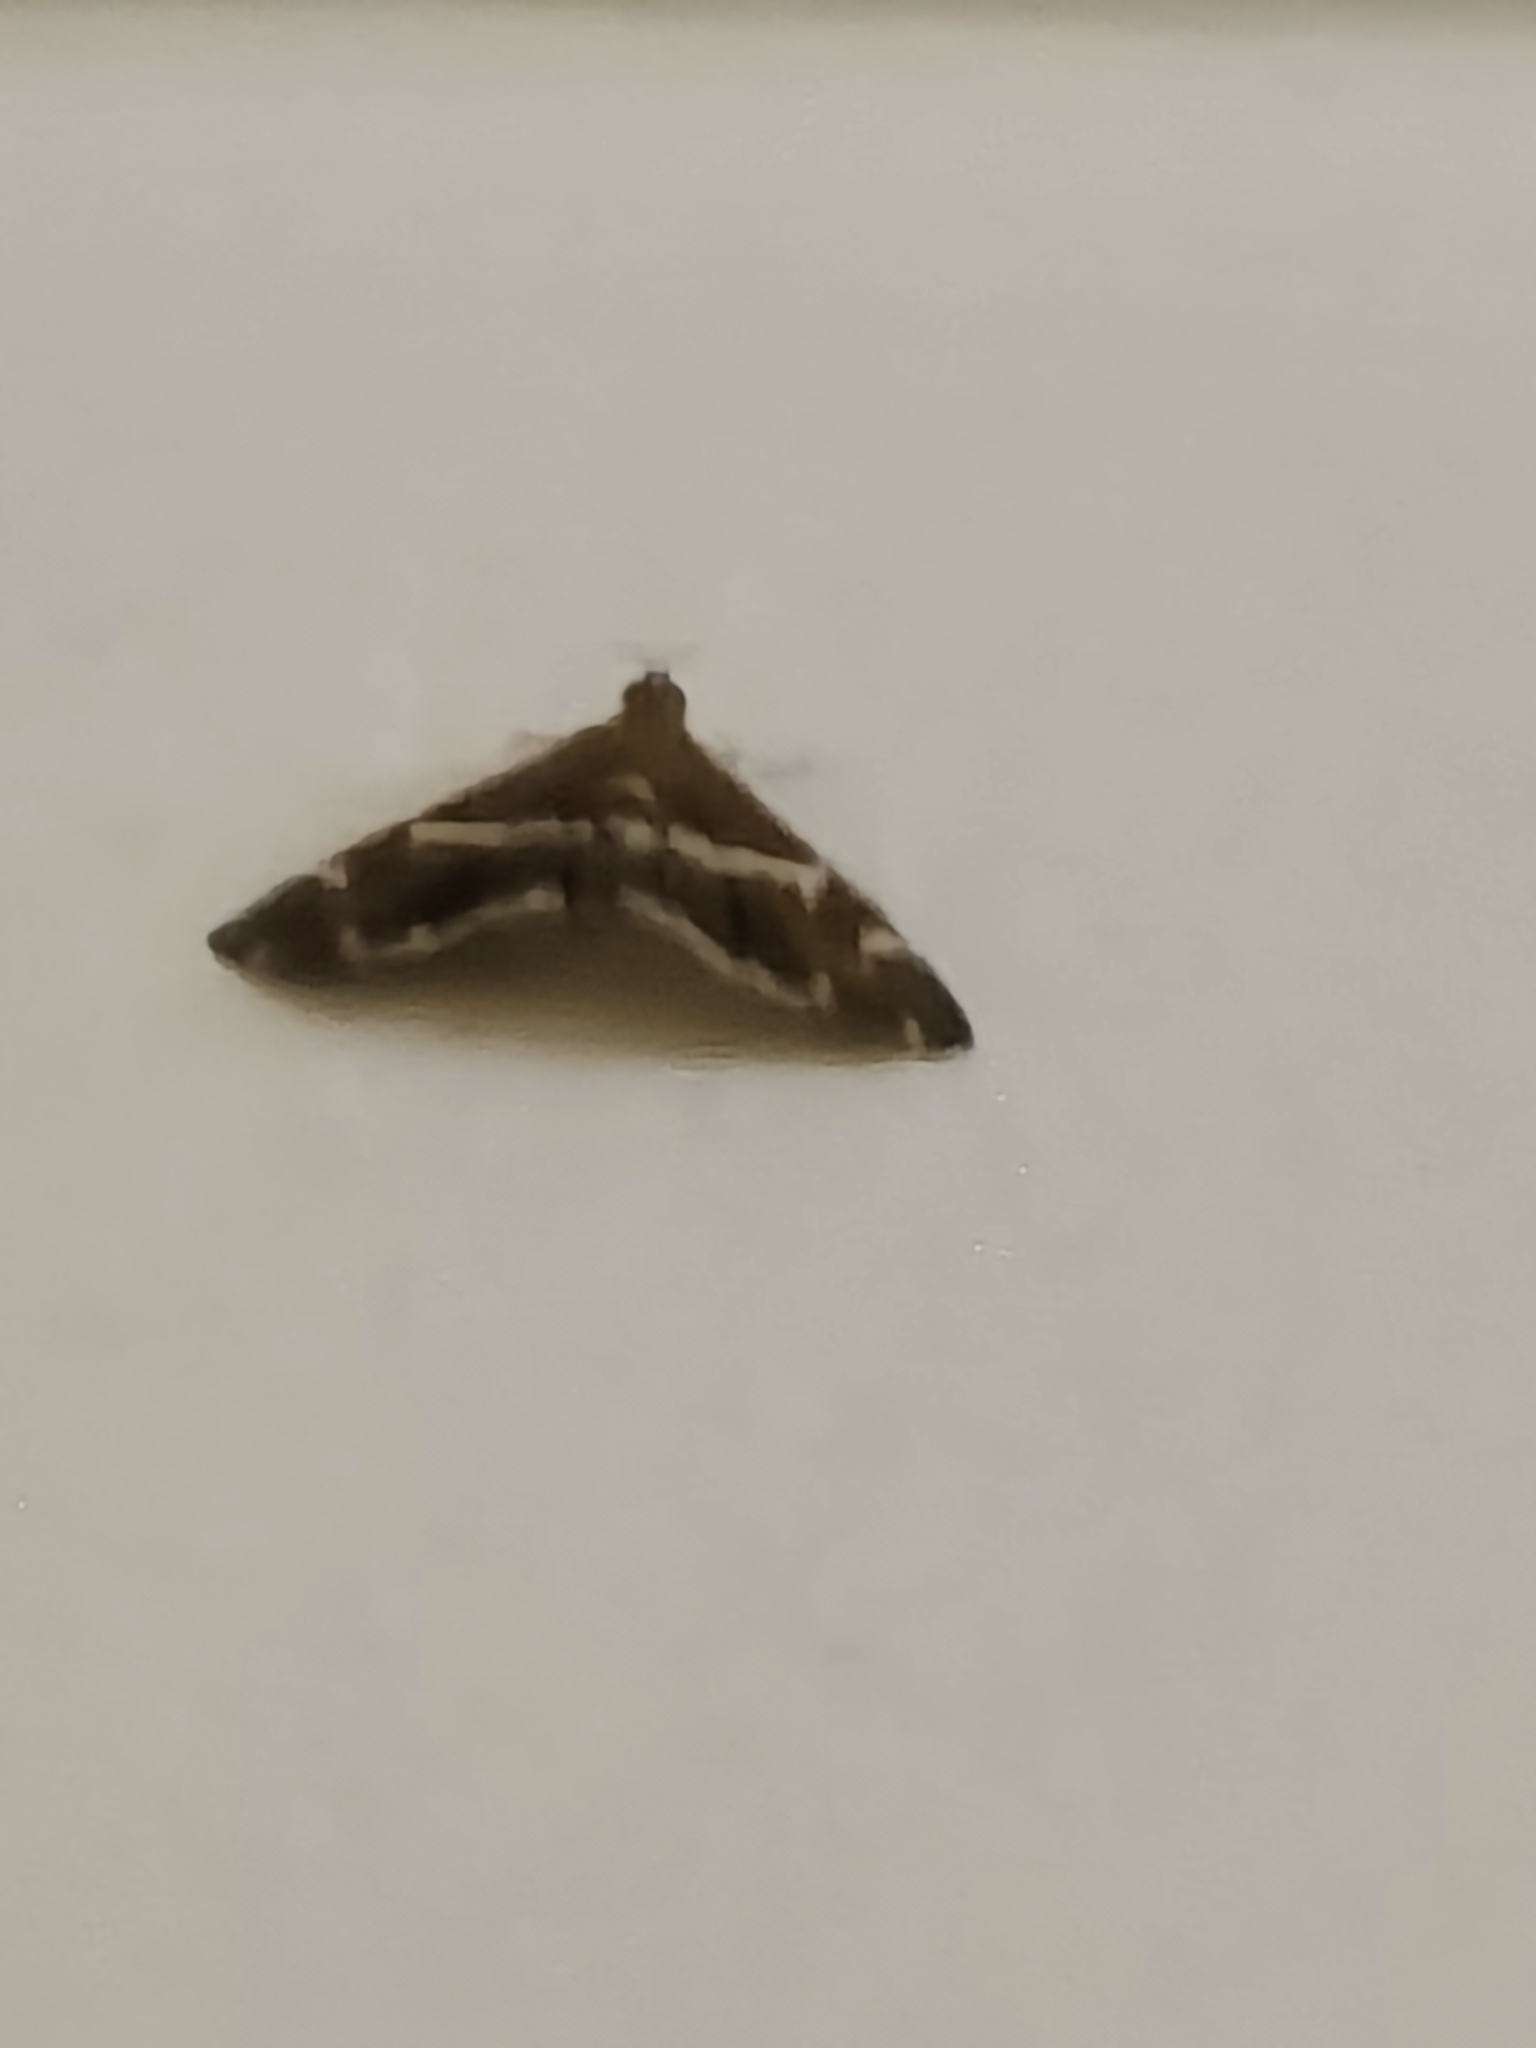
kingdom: Animalia
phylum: Arthropoda
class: Insecta
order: Lepidoptera
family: Crambidae
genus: Spoladea
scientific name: Spoladea recurvalis
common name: Beet webworm moth
